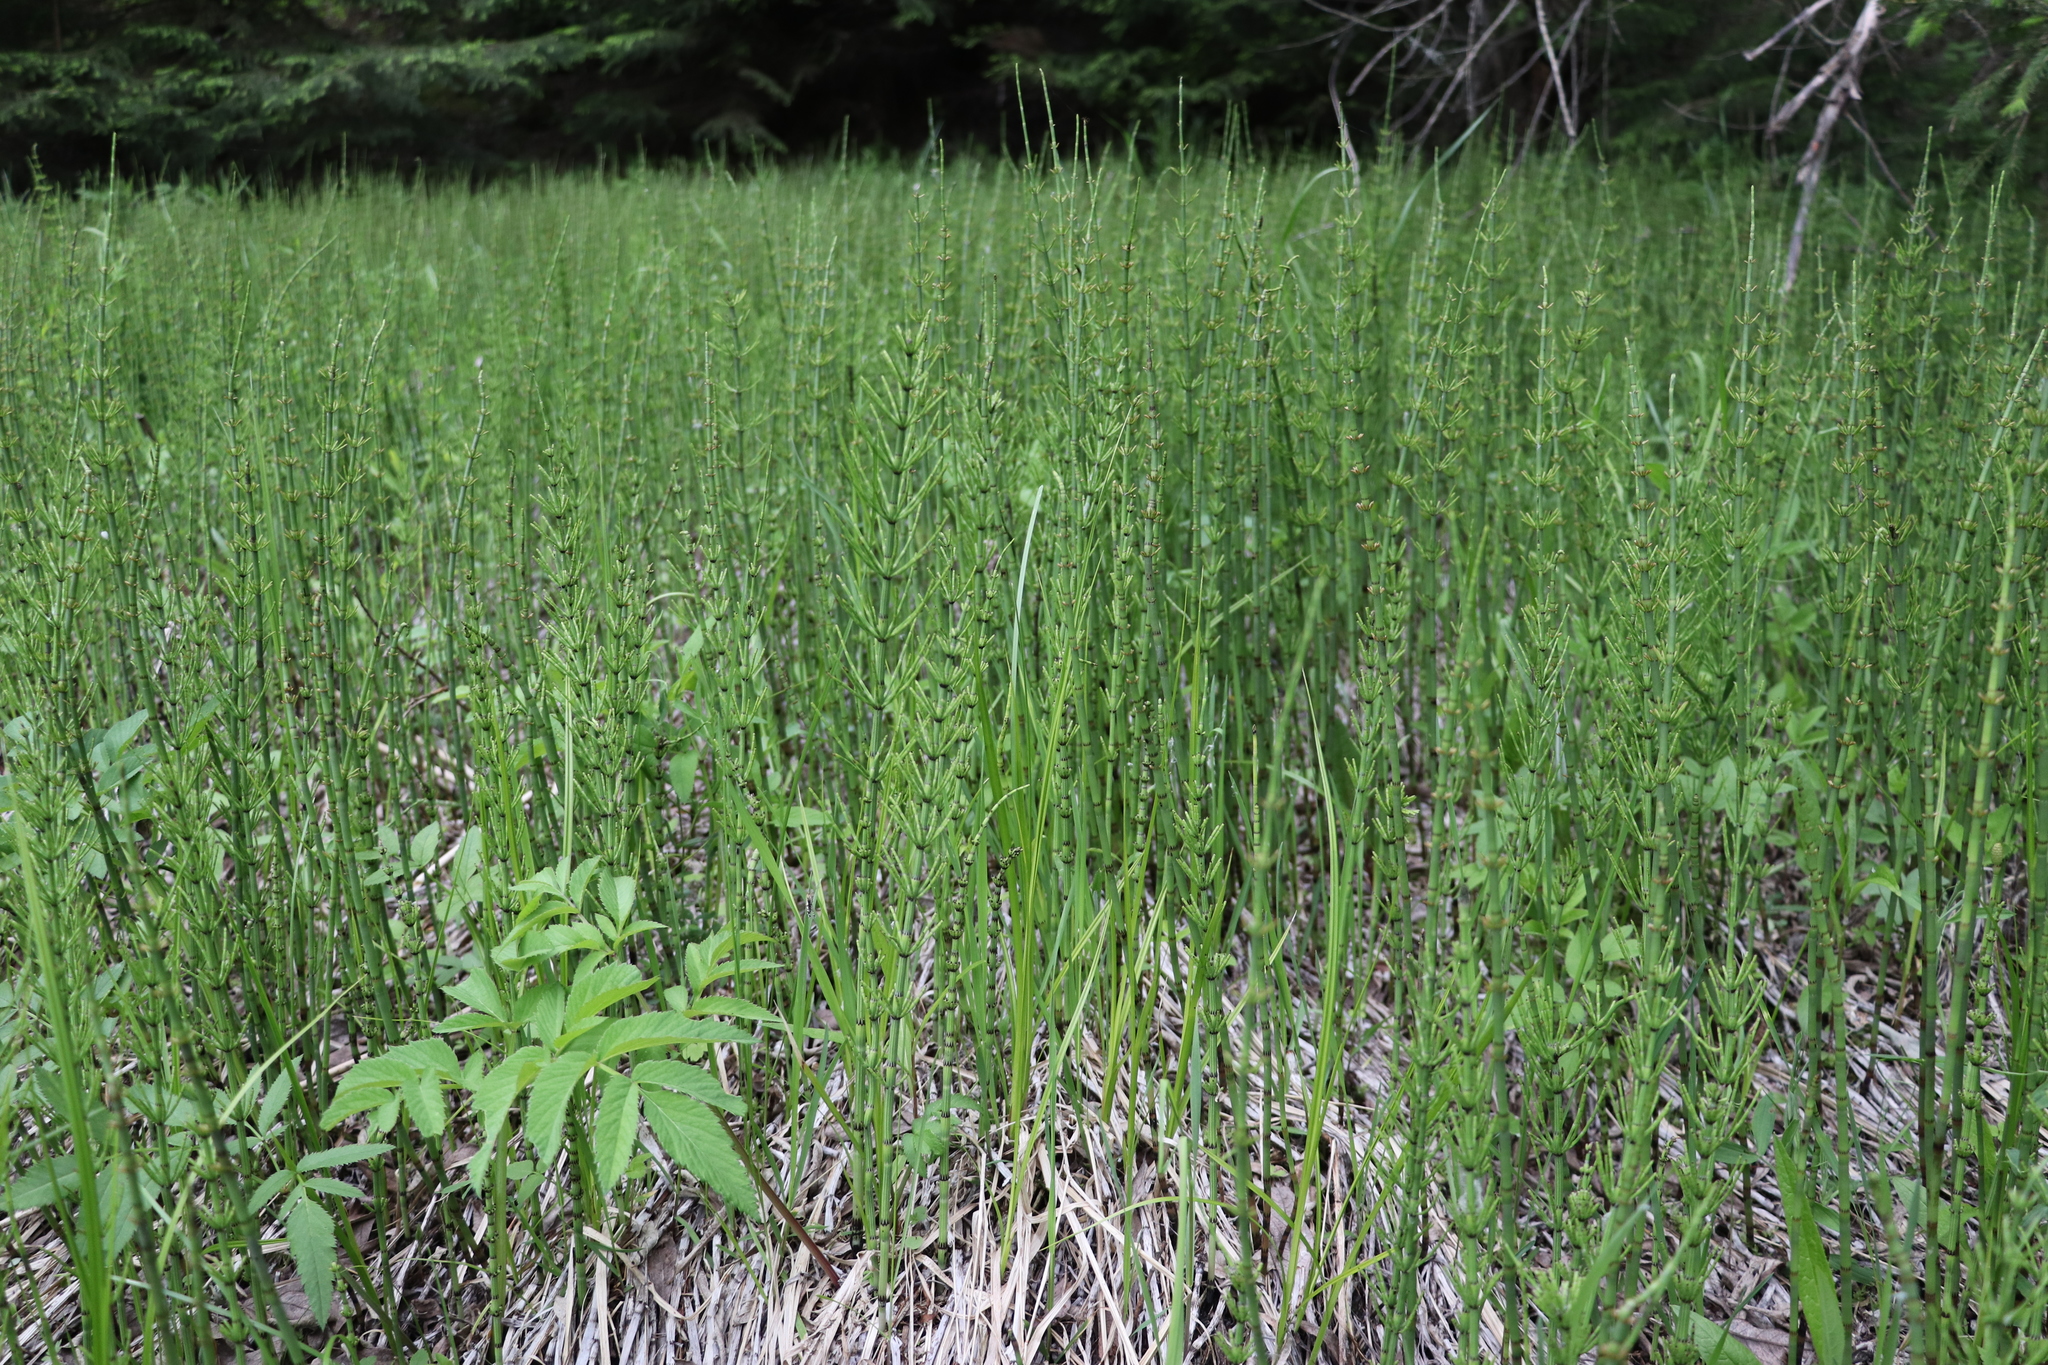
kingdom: Plantae
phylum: Tracheophyta
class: Polypodiopsida
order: Equisetales
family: Equisetaceae
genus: Equisetum
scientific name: Equisetum palustre
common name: Marsh horsetail
